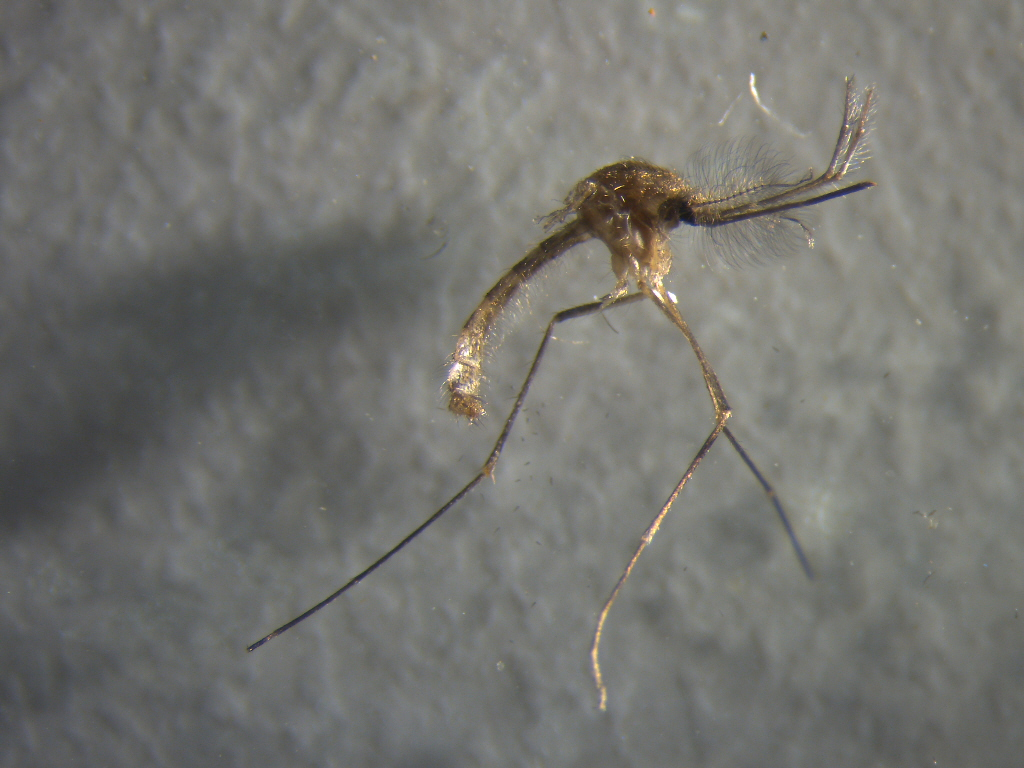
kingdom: Animalia
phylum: Arthropoda
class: Insecta
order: Diptera
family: Culicidae
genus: Culex
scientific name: Culex quinquefasciatus
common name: Southern house mosquito
